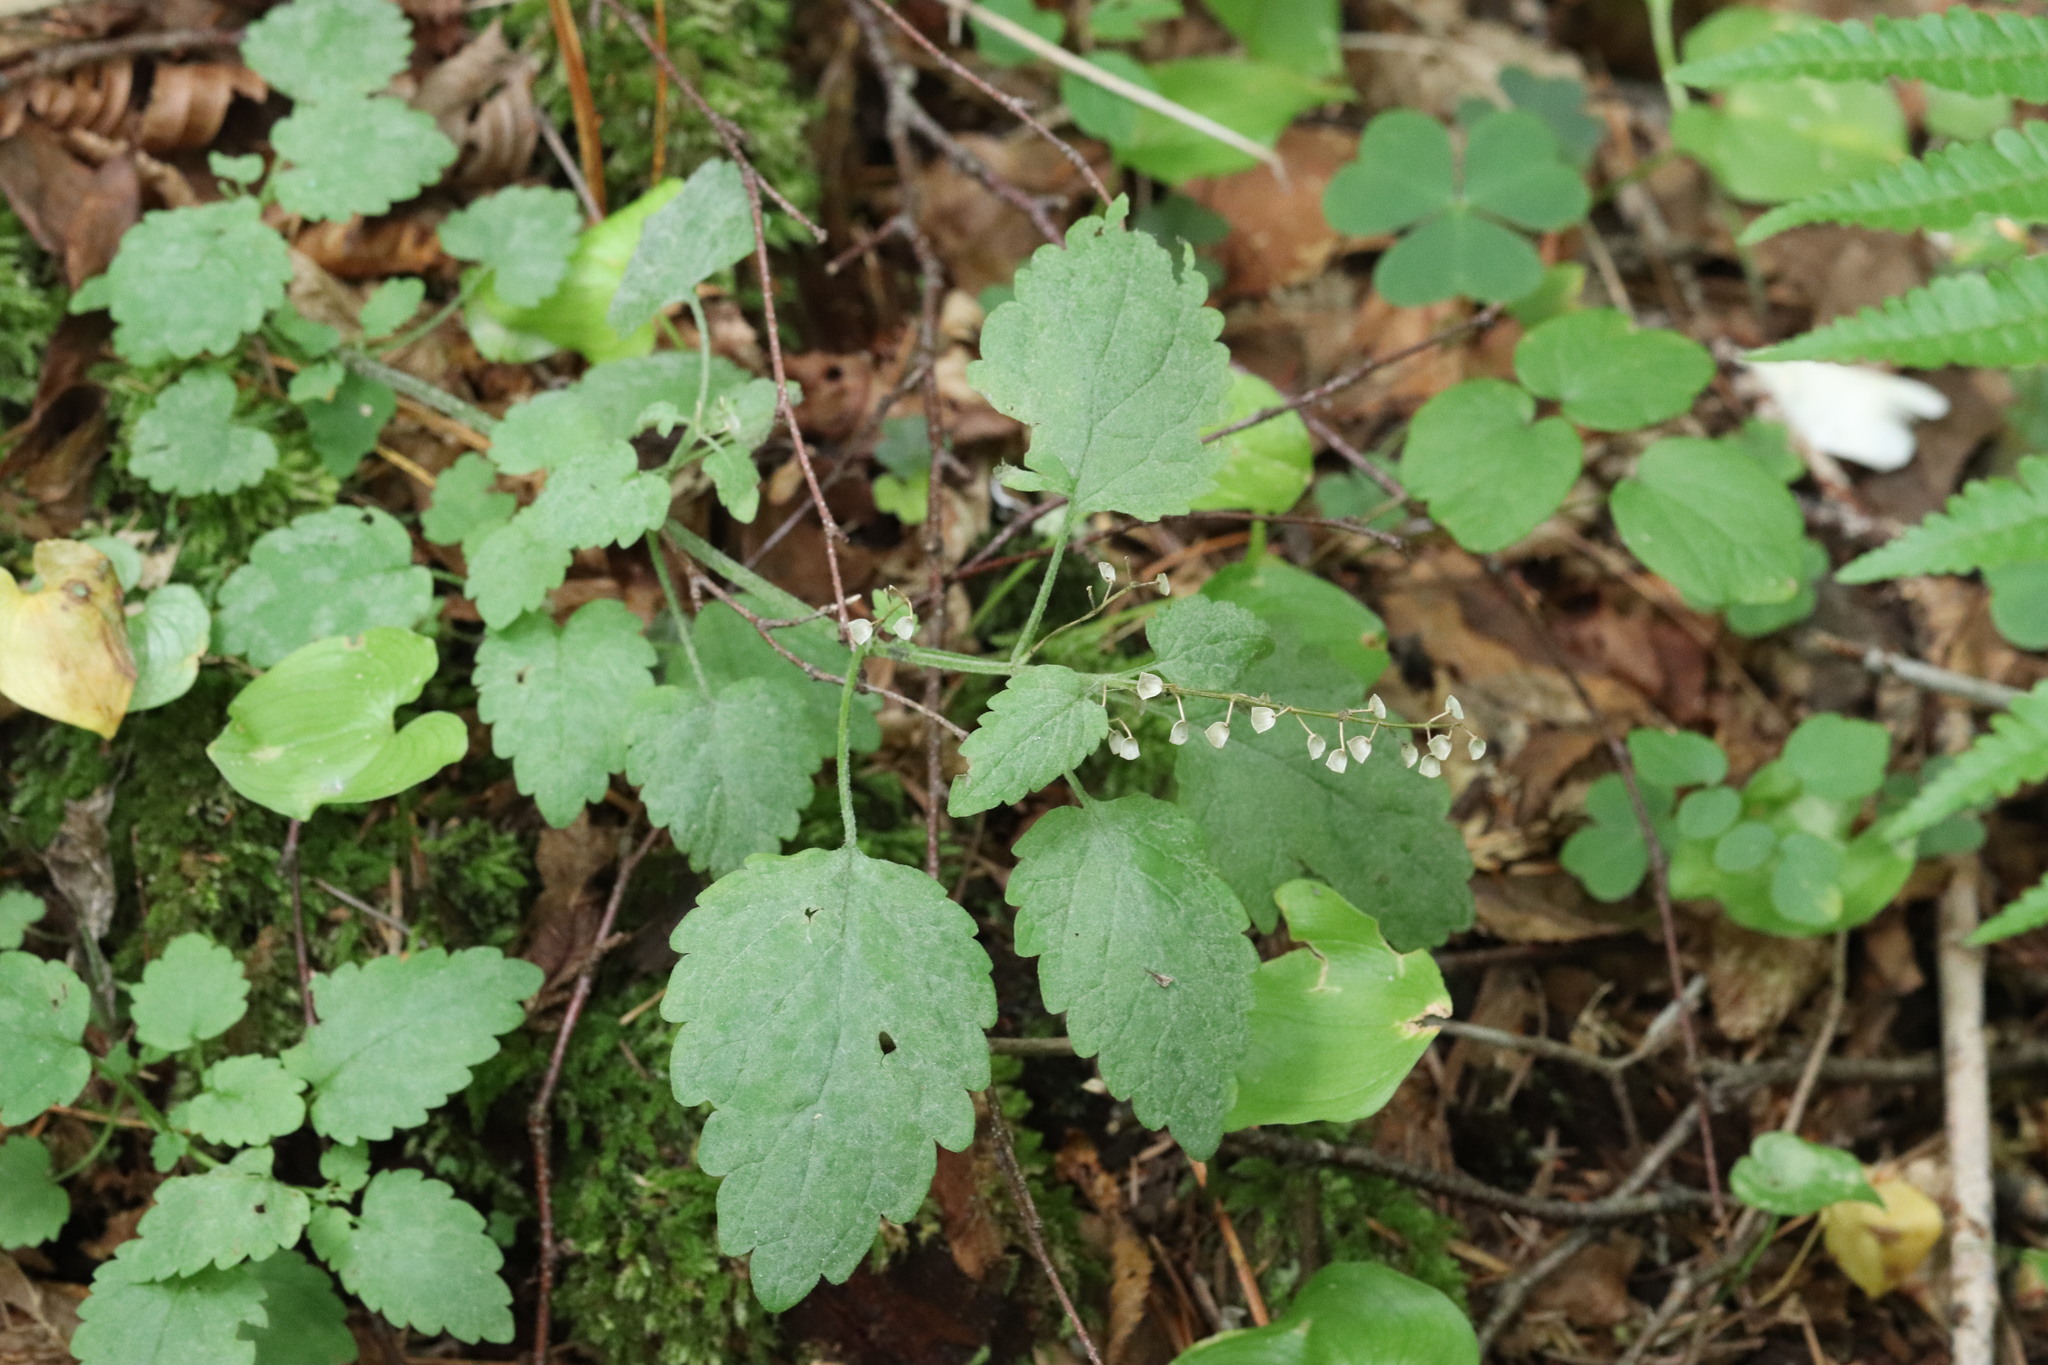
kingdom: Plantae
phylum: Tracheophyta
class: Magnoliopsida
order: Lamiales
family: Lamiaceae
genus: Scutellaria
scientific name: Scutellaria pekinensis
